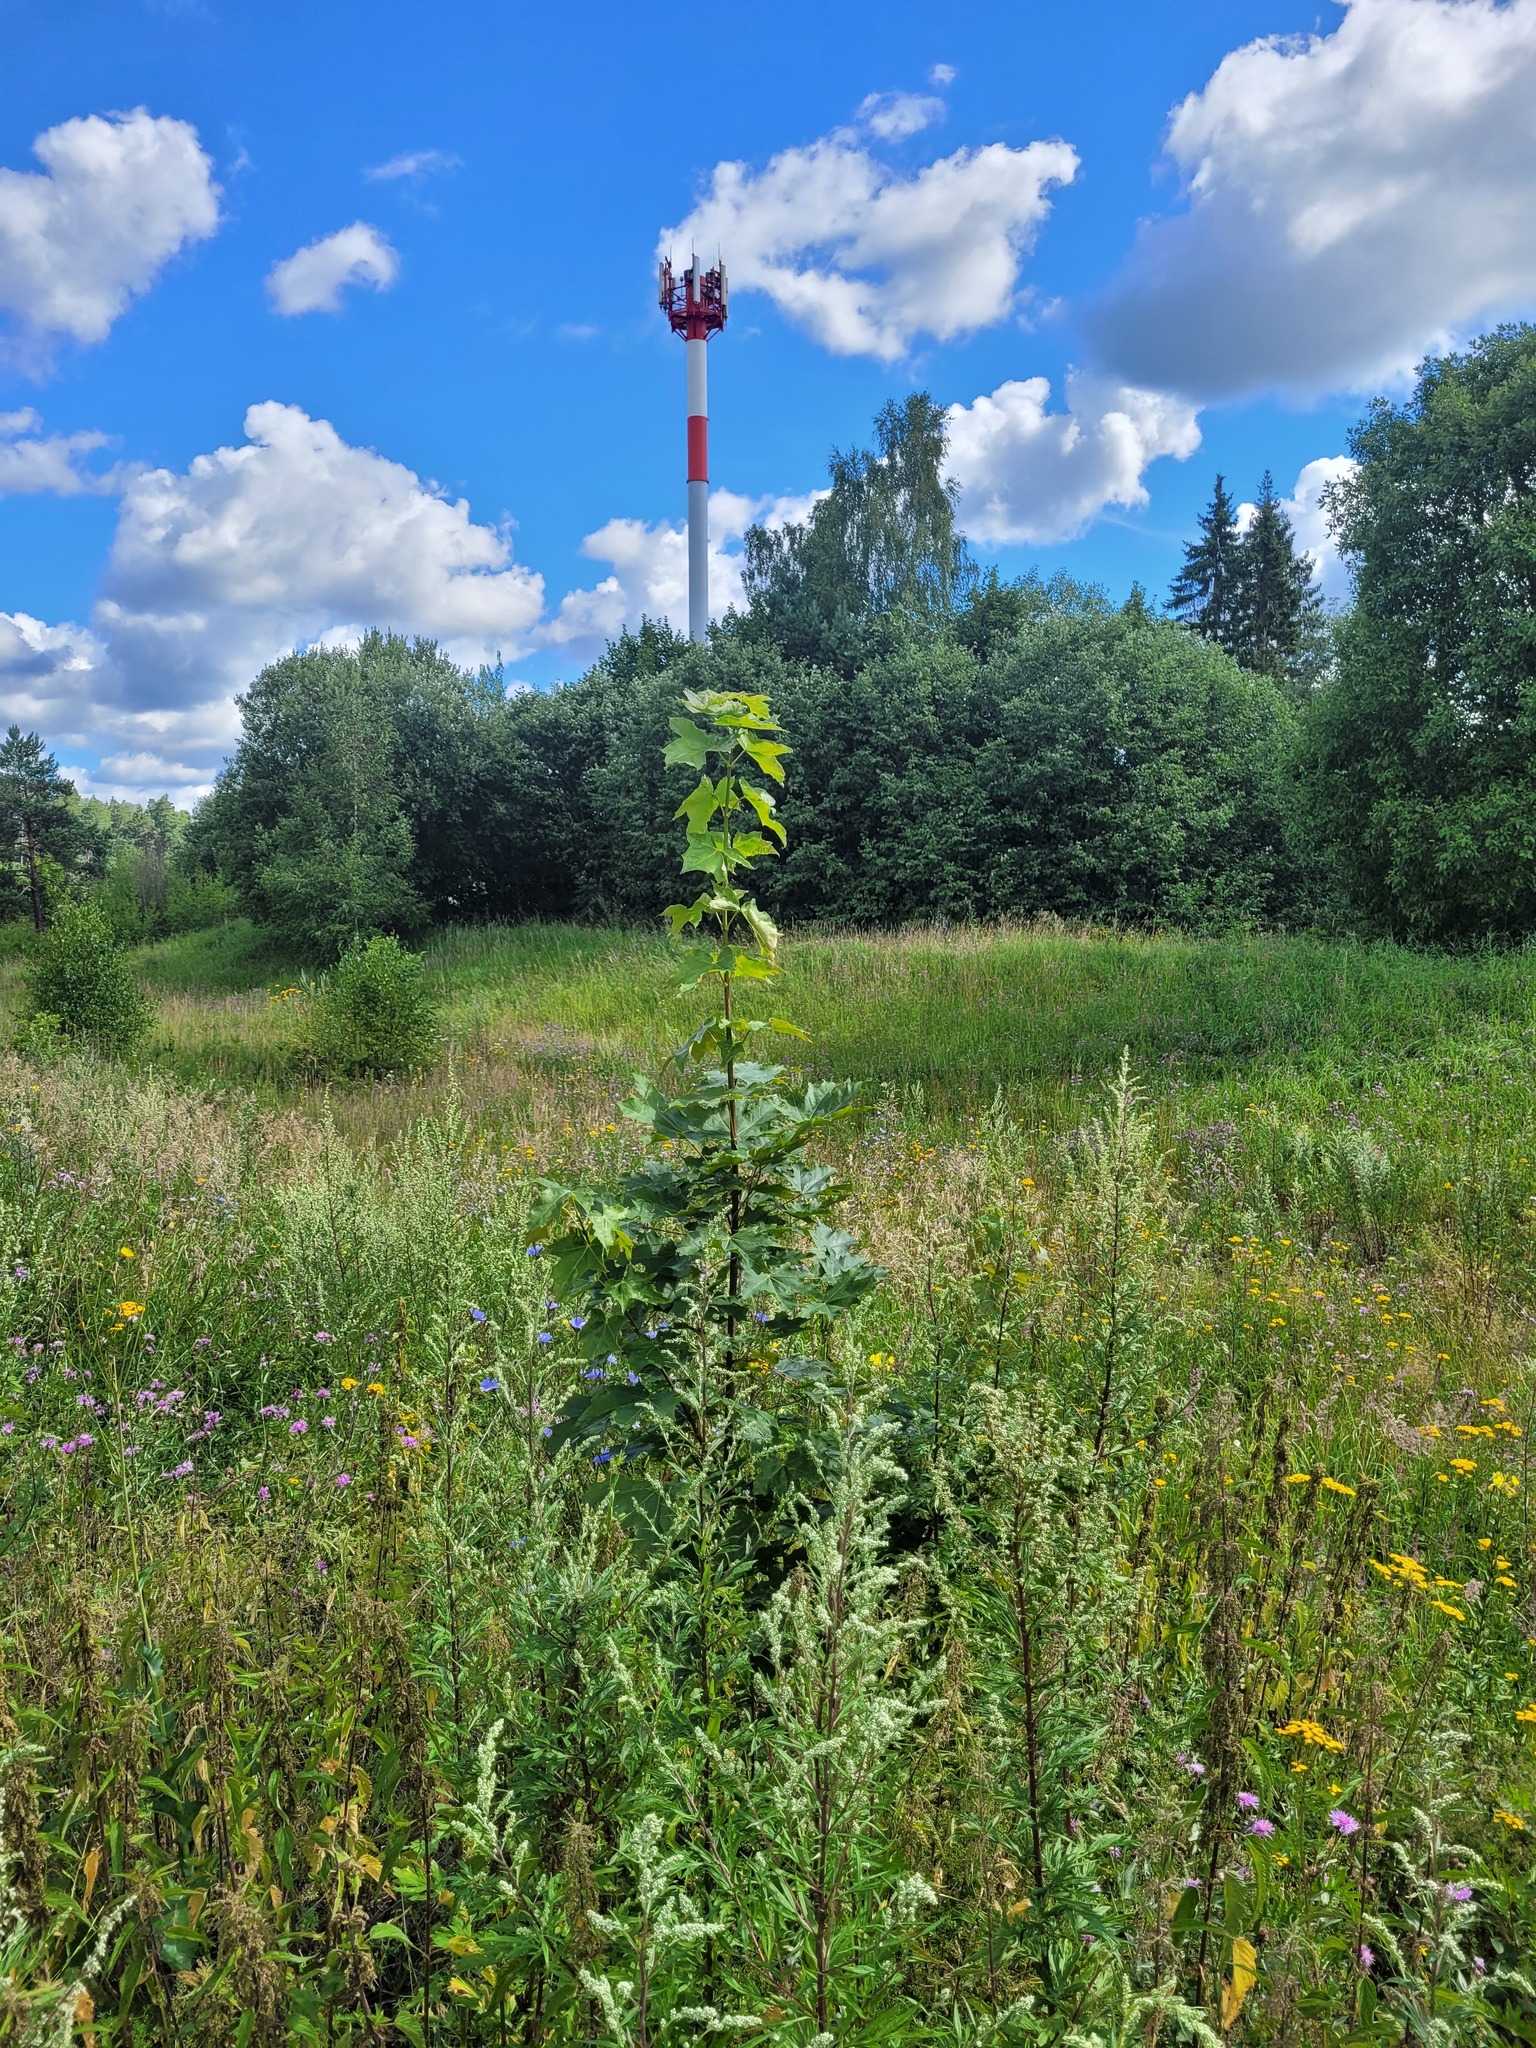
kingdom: Plantae
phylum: Tracheophyta
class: Magnoliopsida
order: Sapindales
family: Sapindaceae
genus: Acer
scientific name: Acer platanoides
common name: Norway maple
